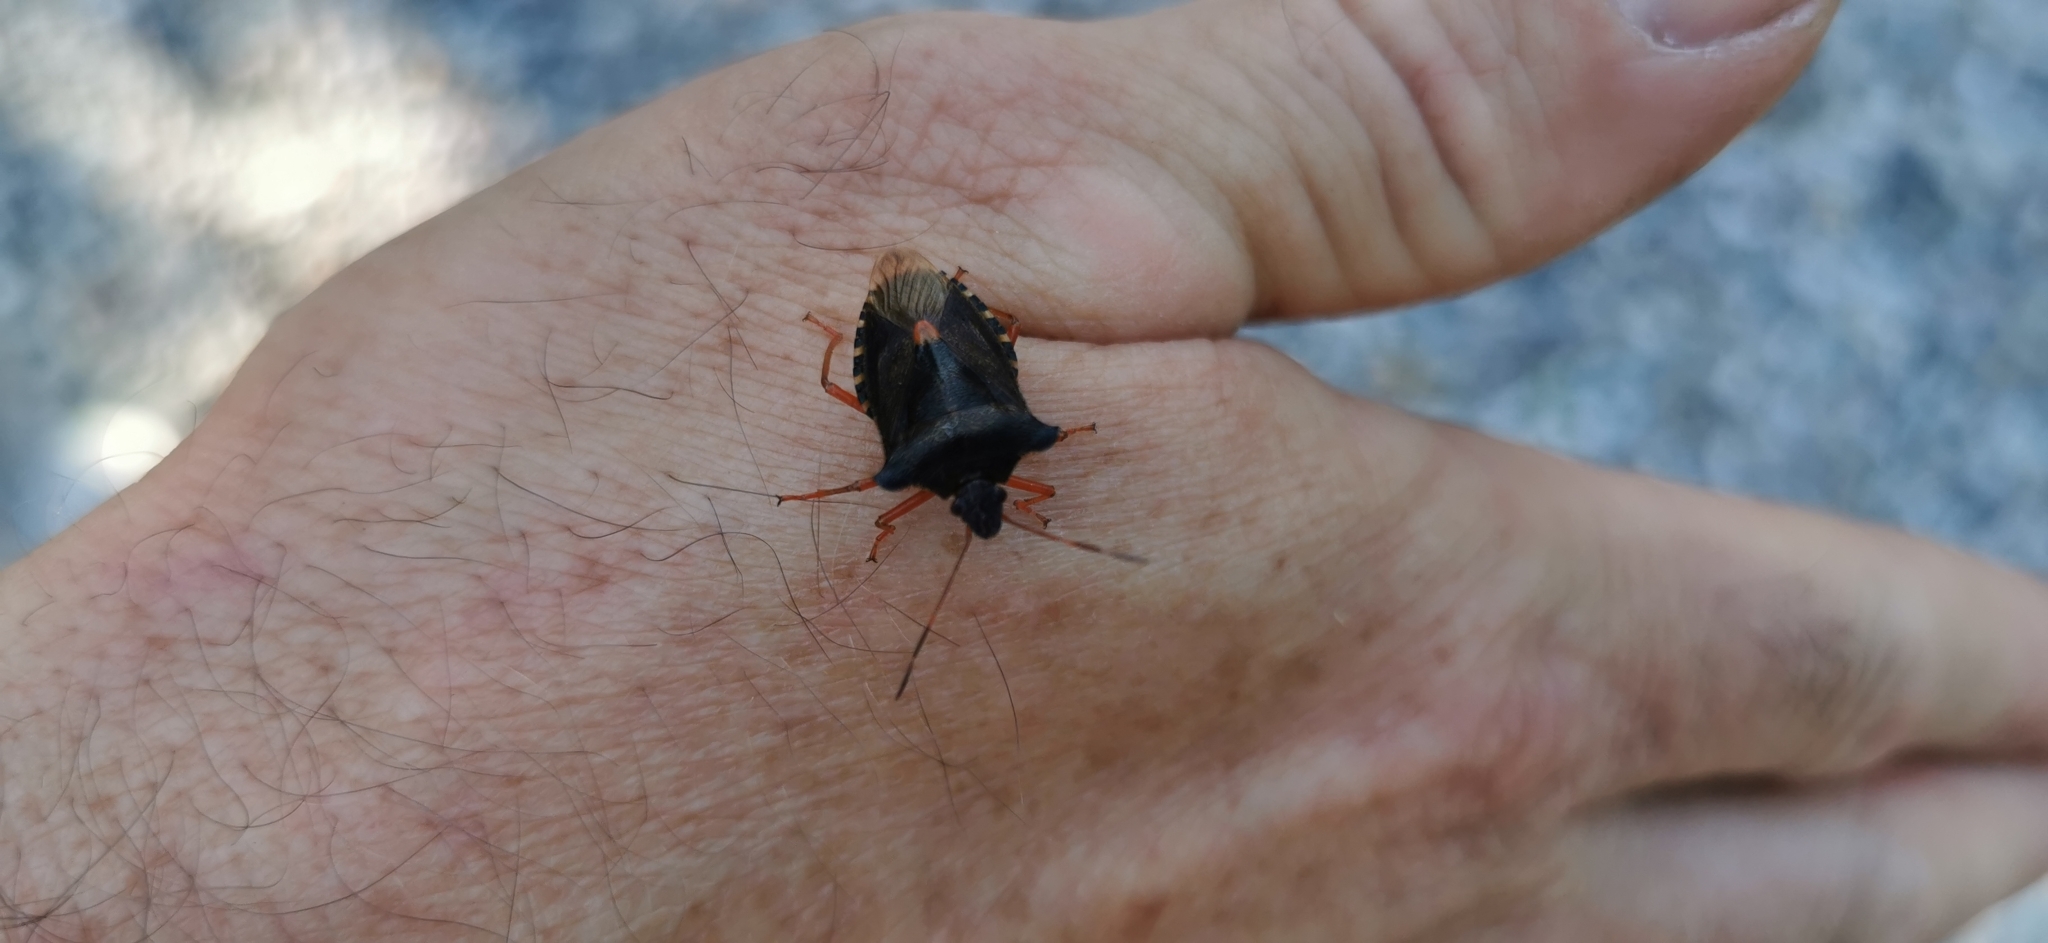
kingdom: Animalia
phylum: Arthropoda
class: Insecta
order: Hemiptera
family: Pentatomidae
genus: Pentatoma
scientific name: Pentatoma rufipes
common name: Forest bug
